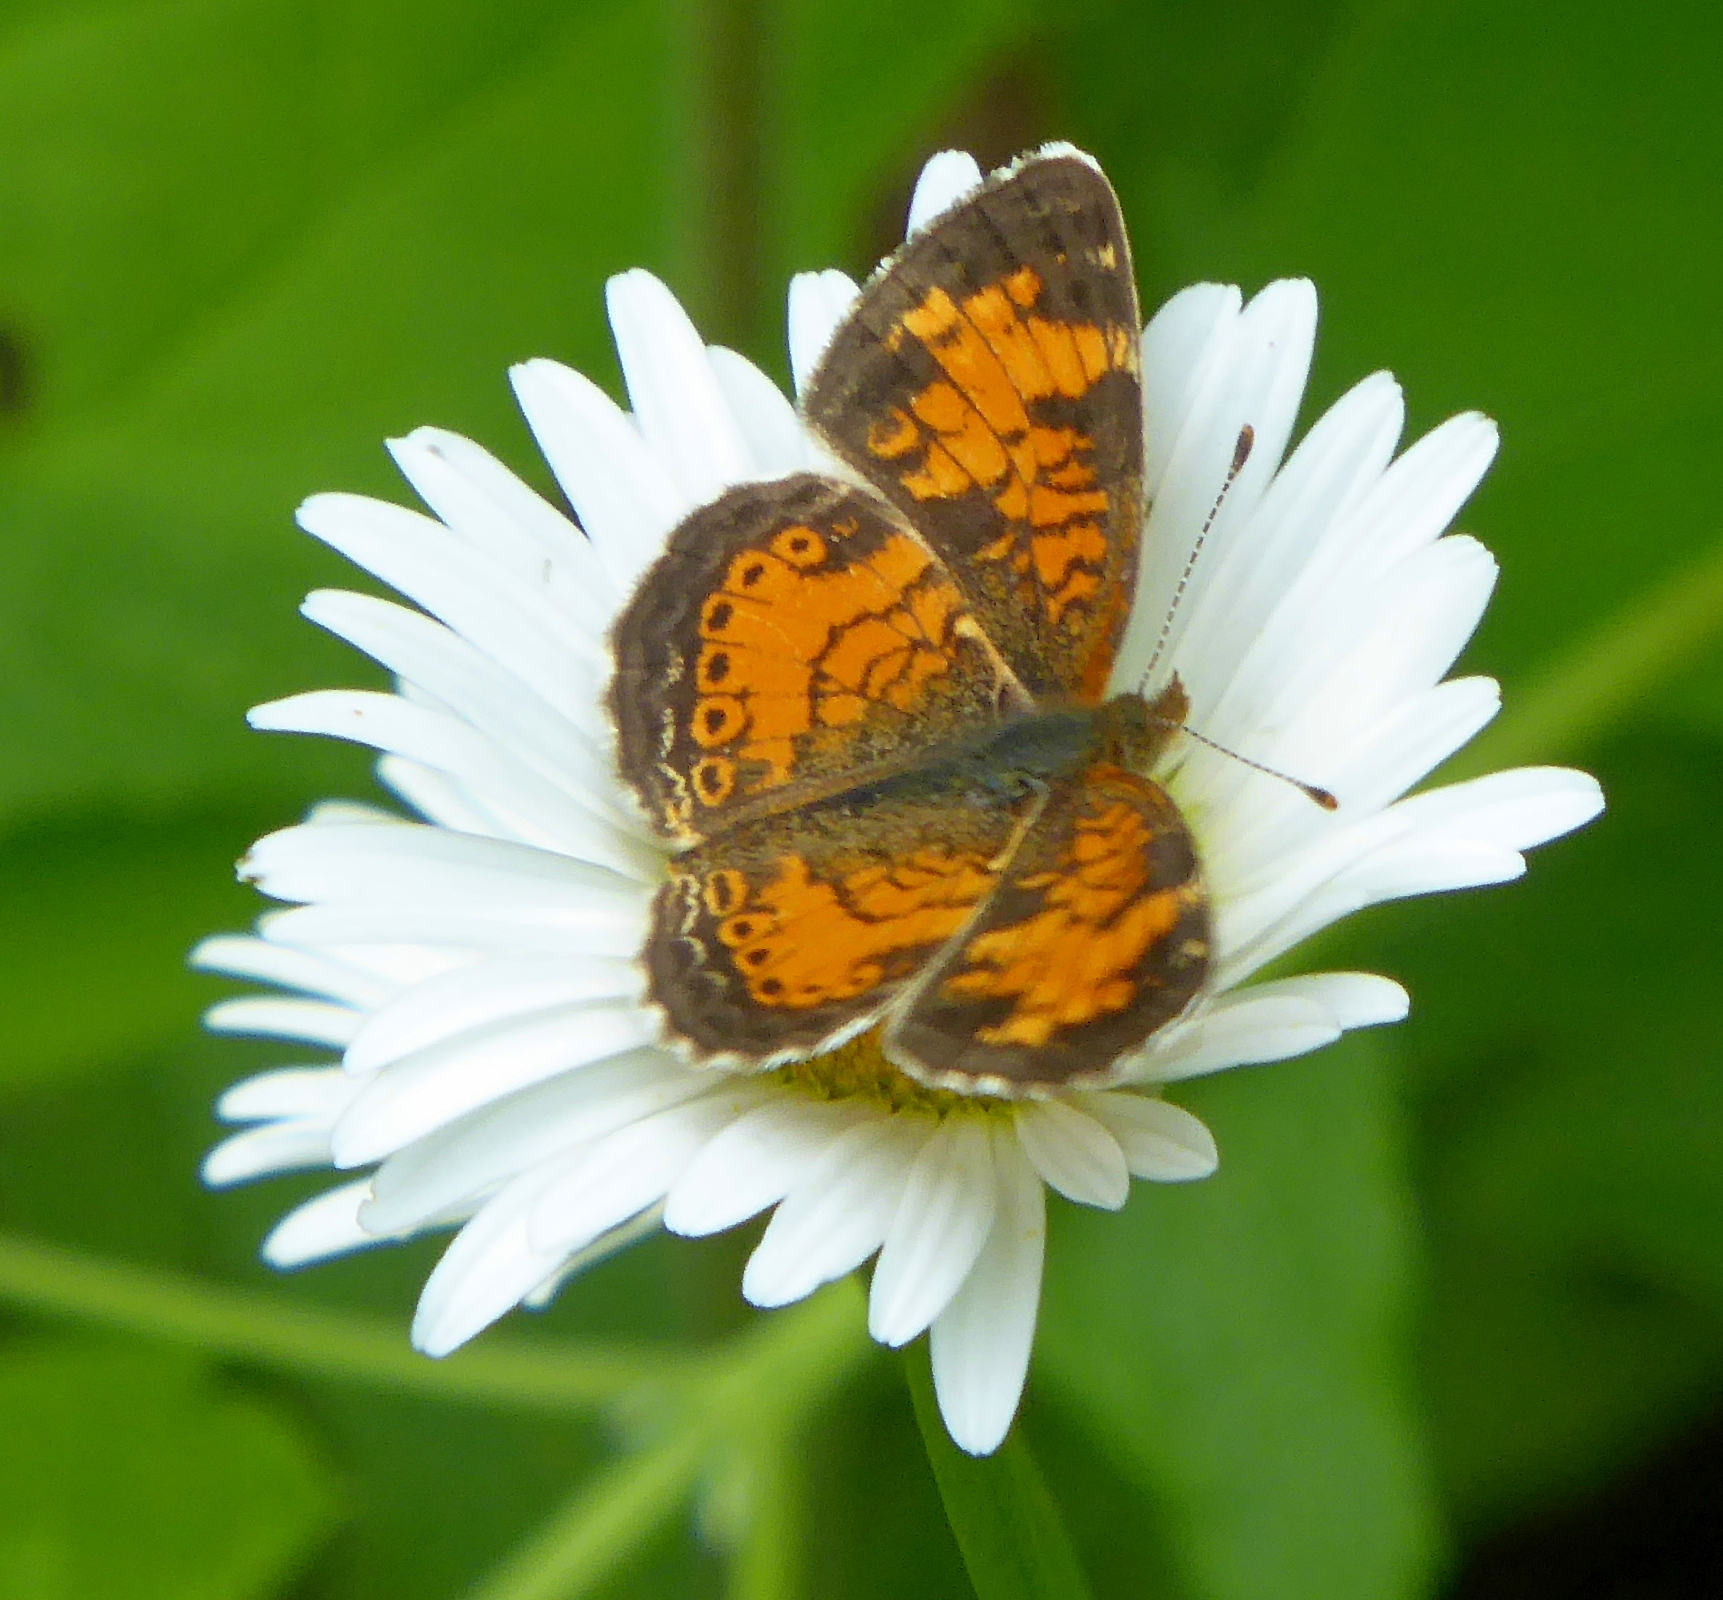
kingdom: Animalia
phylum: Arthropoda
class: Insecta
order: Lepidoptera
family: Nymphalidae
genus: Phyciodes
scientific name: Phyciodes tharos
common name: Pearl crescent
